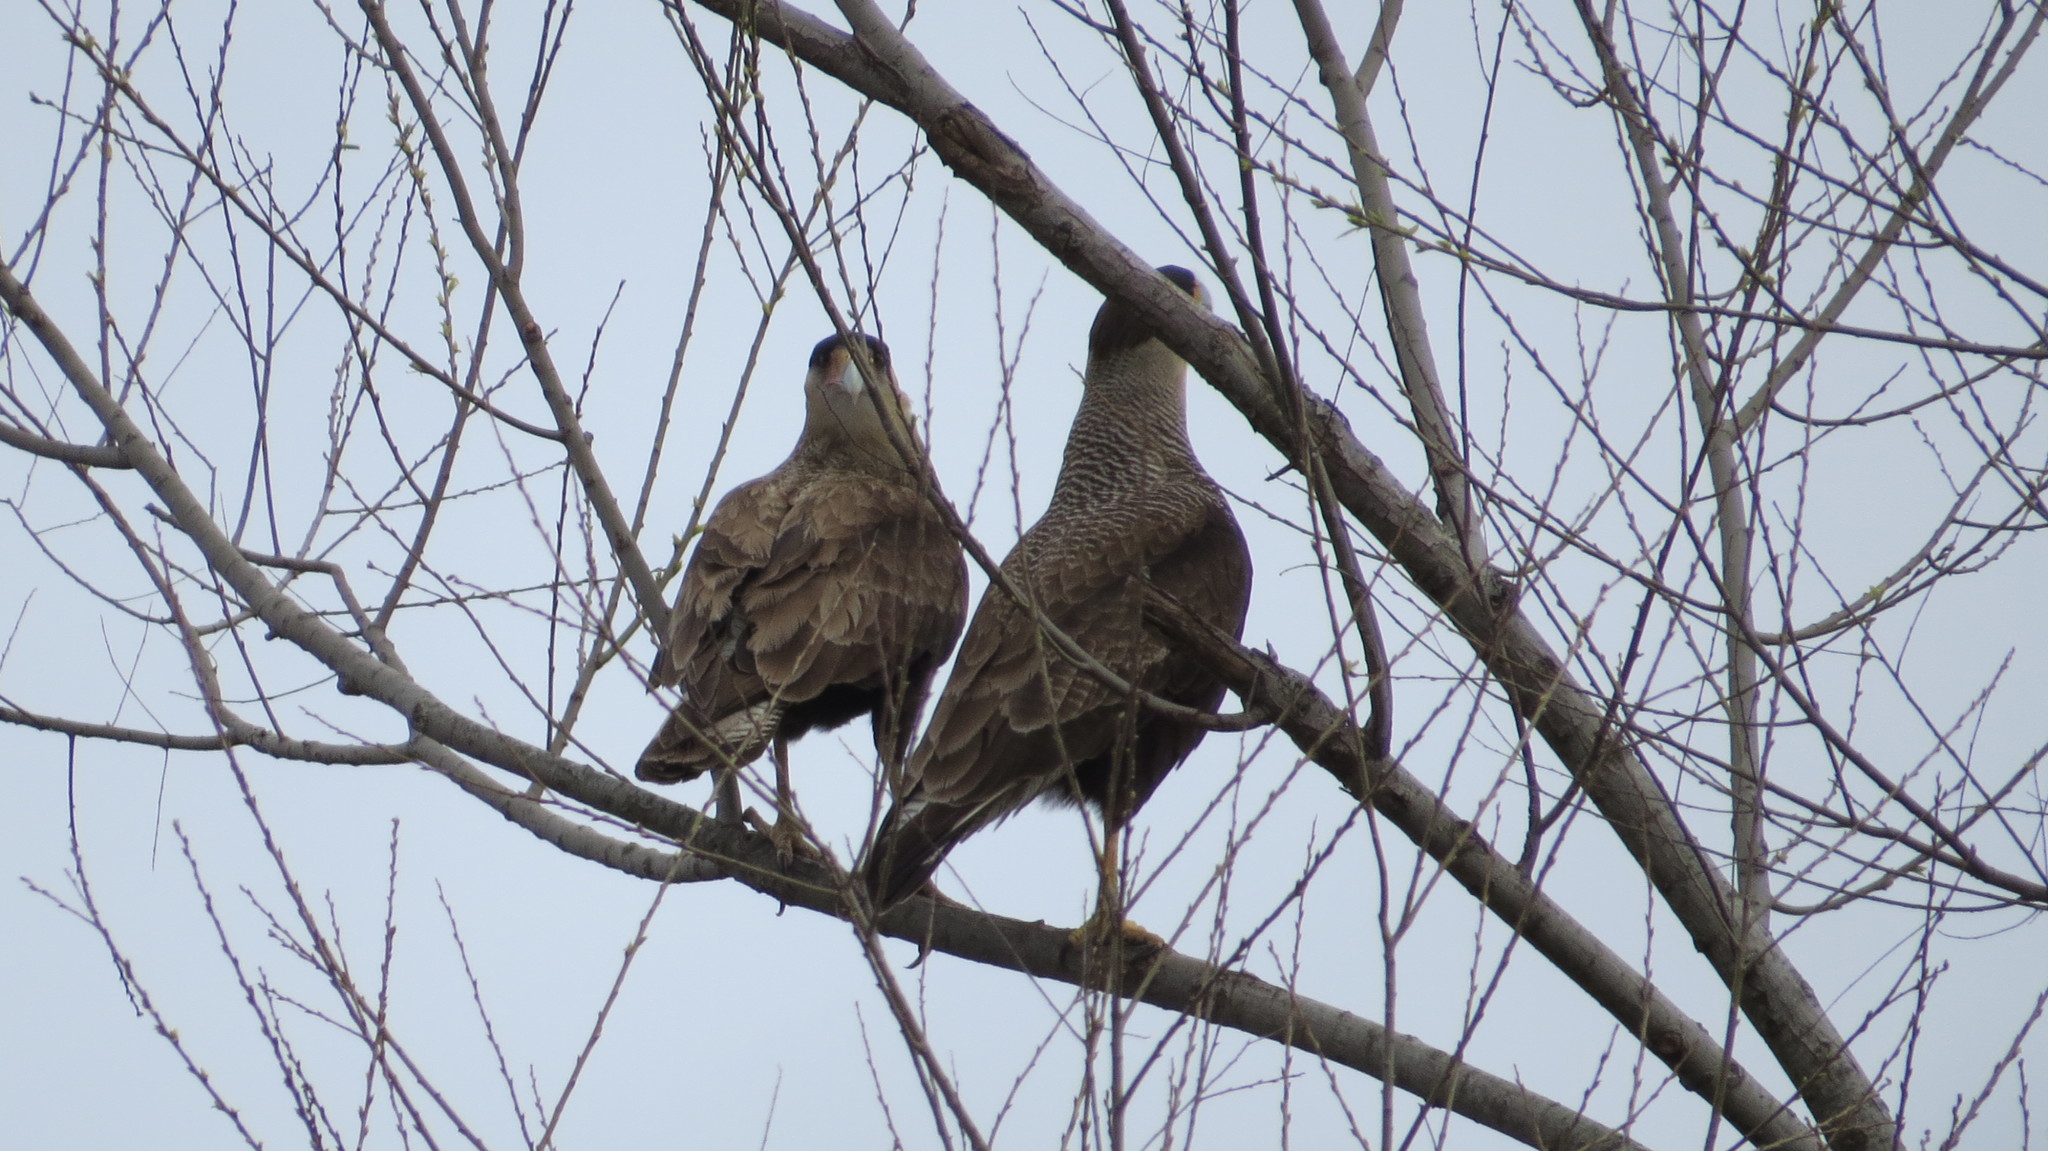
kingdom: Animalia
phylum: Chordata
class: Aves
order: Falconiformes
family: Falconidae
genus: Caracara
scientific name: Caracara plancus
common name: Southern caracara
